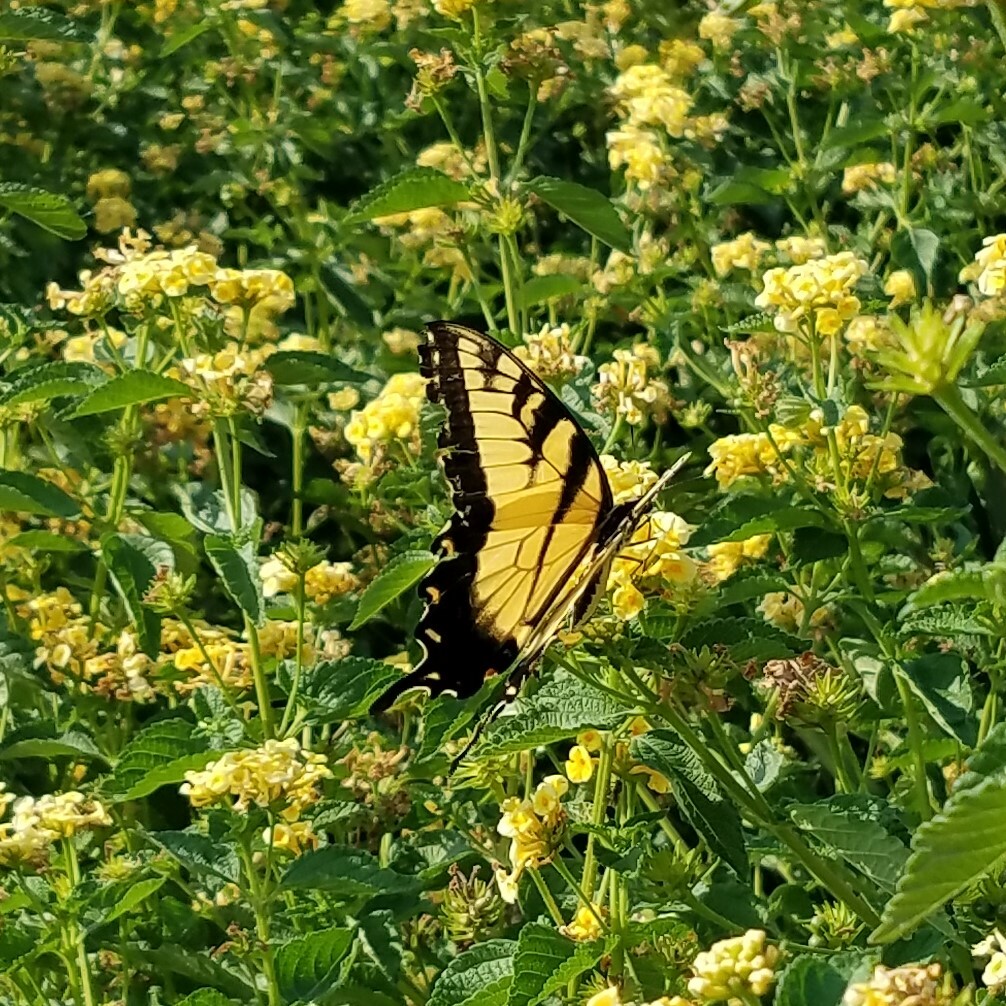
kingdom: Animalia
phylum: Arthropoda
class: Insecta
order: Lepidoptera
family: Papilionidae
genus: Papilio
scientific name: Papilio glaucus
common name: Tiger swallowtail
